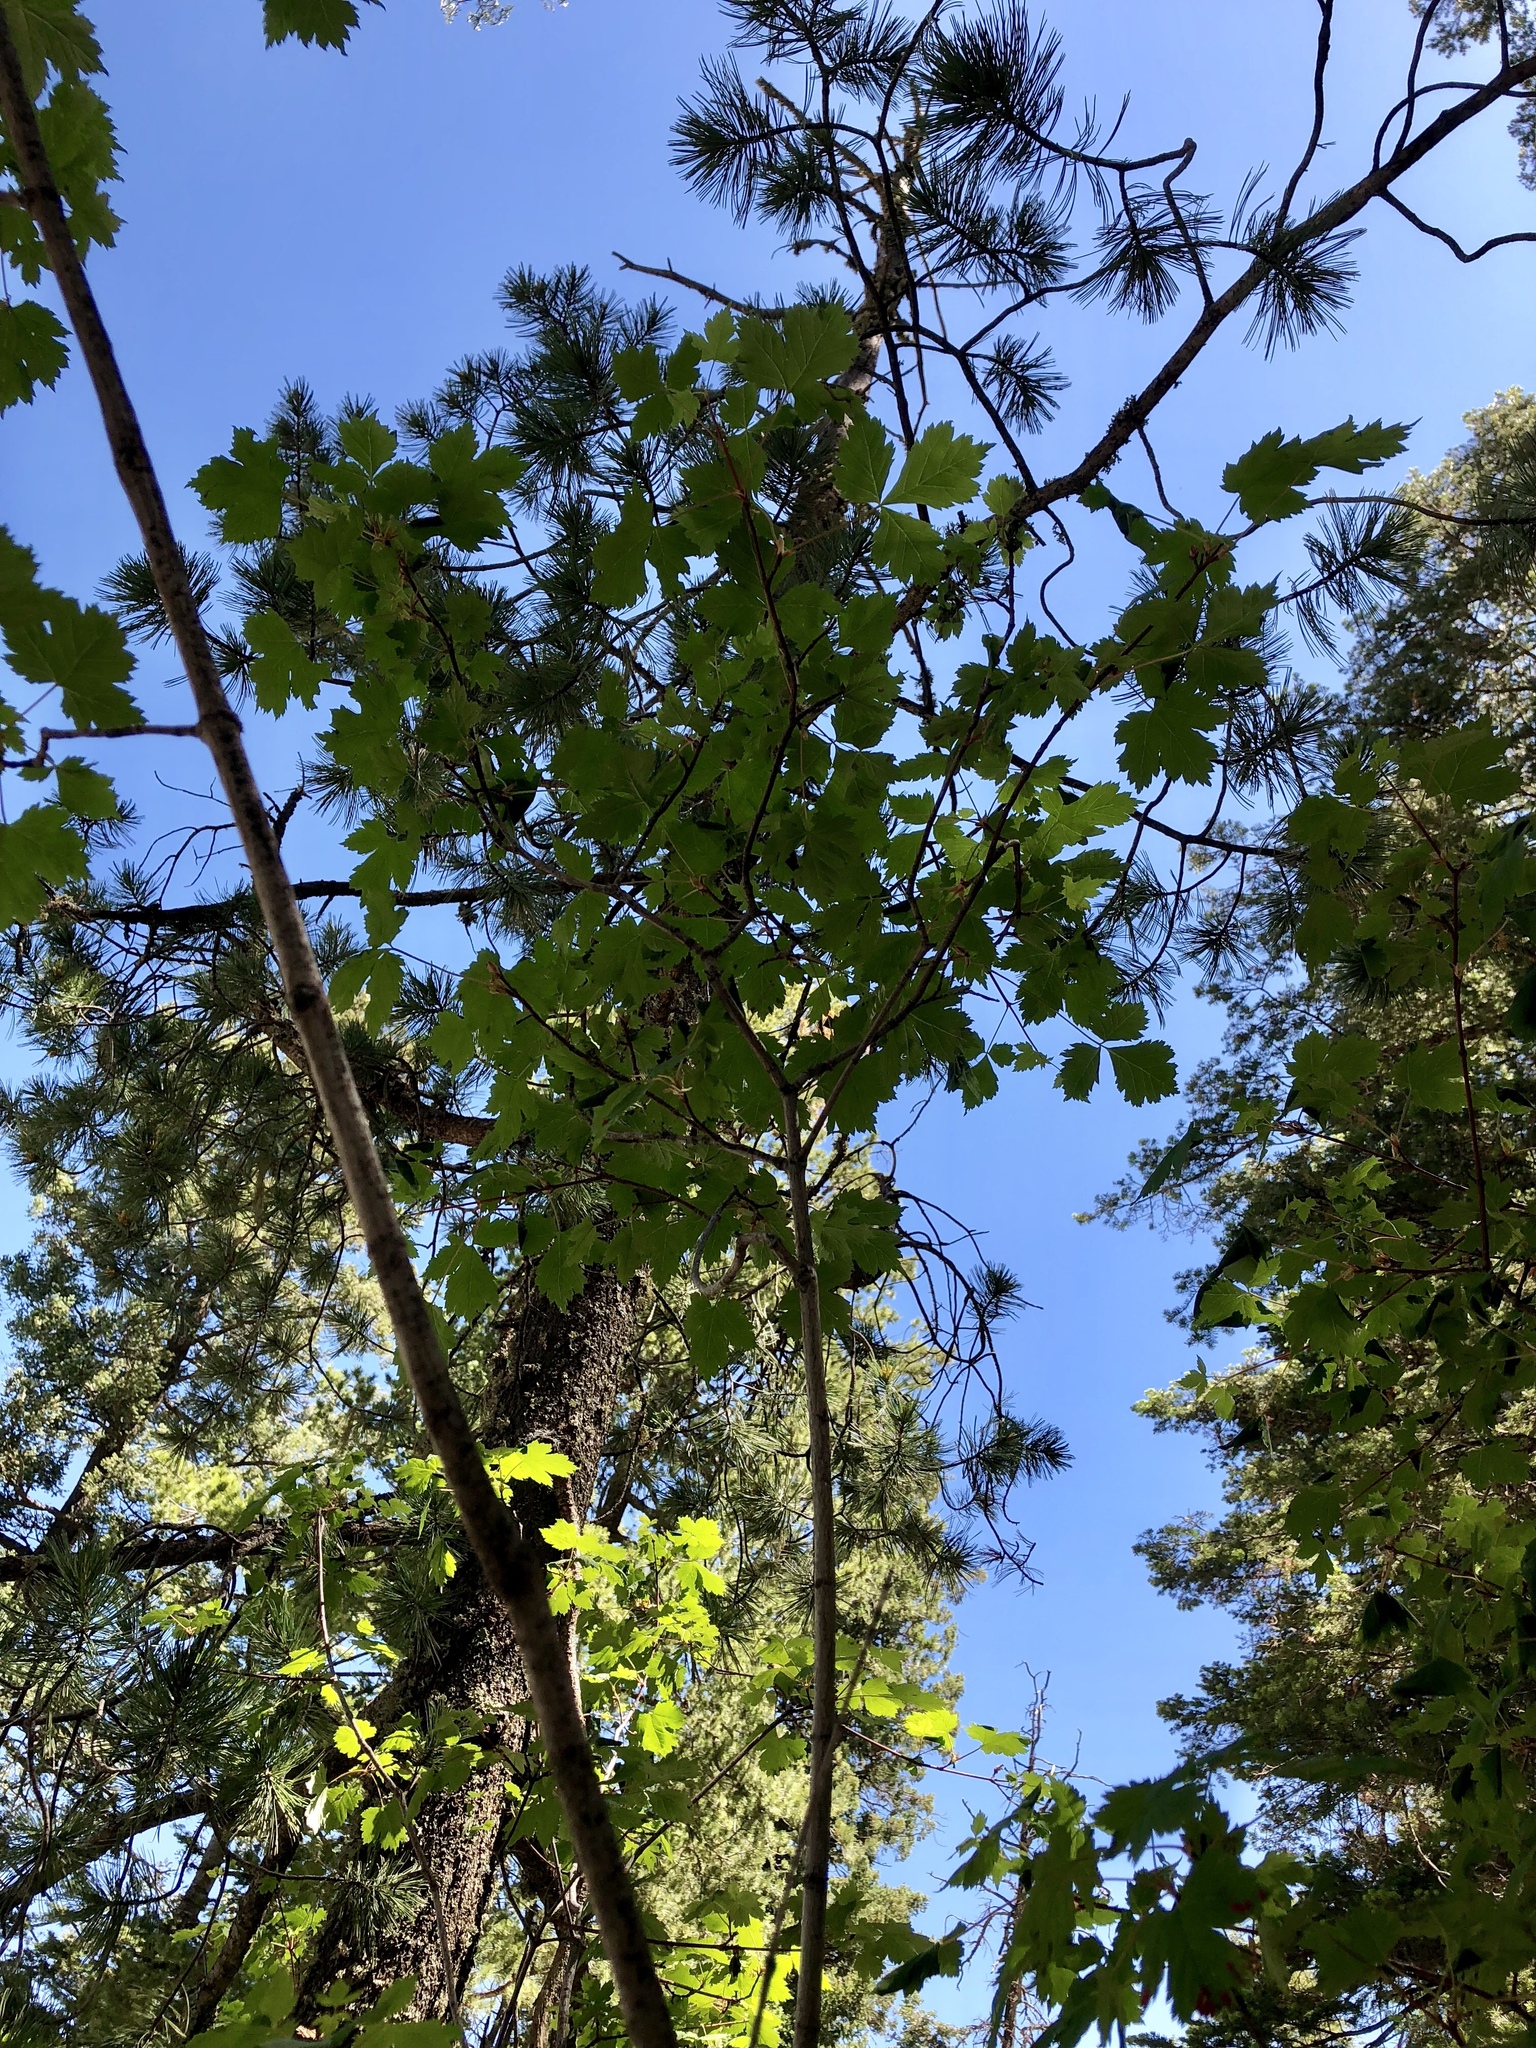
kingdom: Plantae
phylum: Tracheophyta
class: Magnoliopsida
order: Sapindales
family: Sapindaceae
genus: Acer
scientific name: Acer glabrum
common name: Rocky mountain maple
